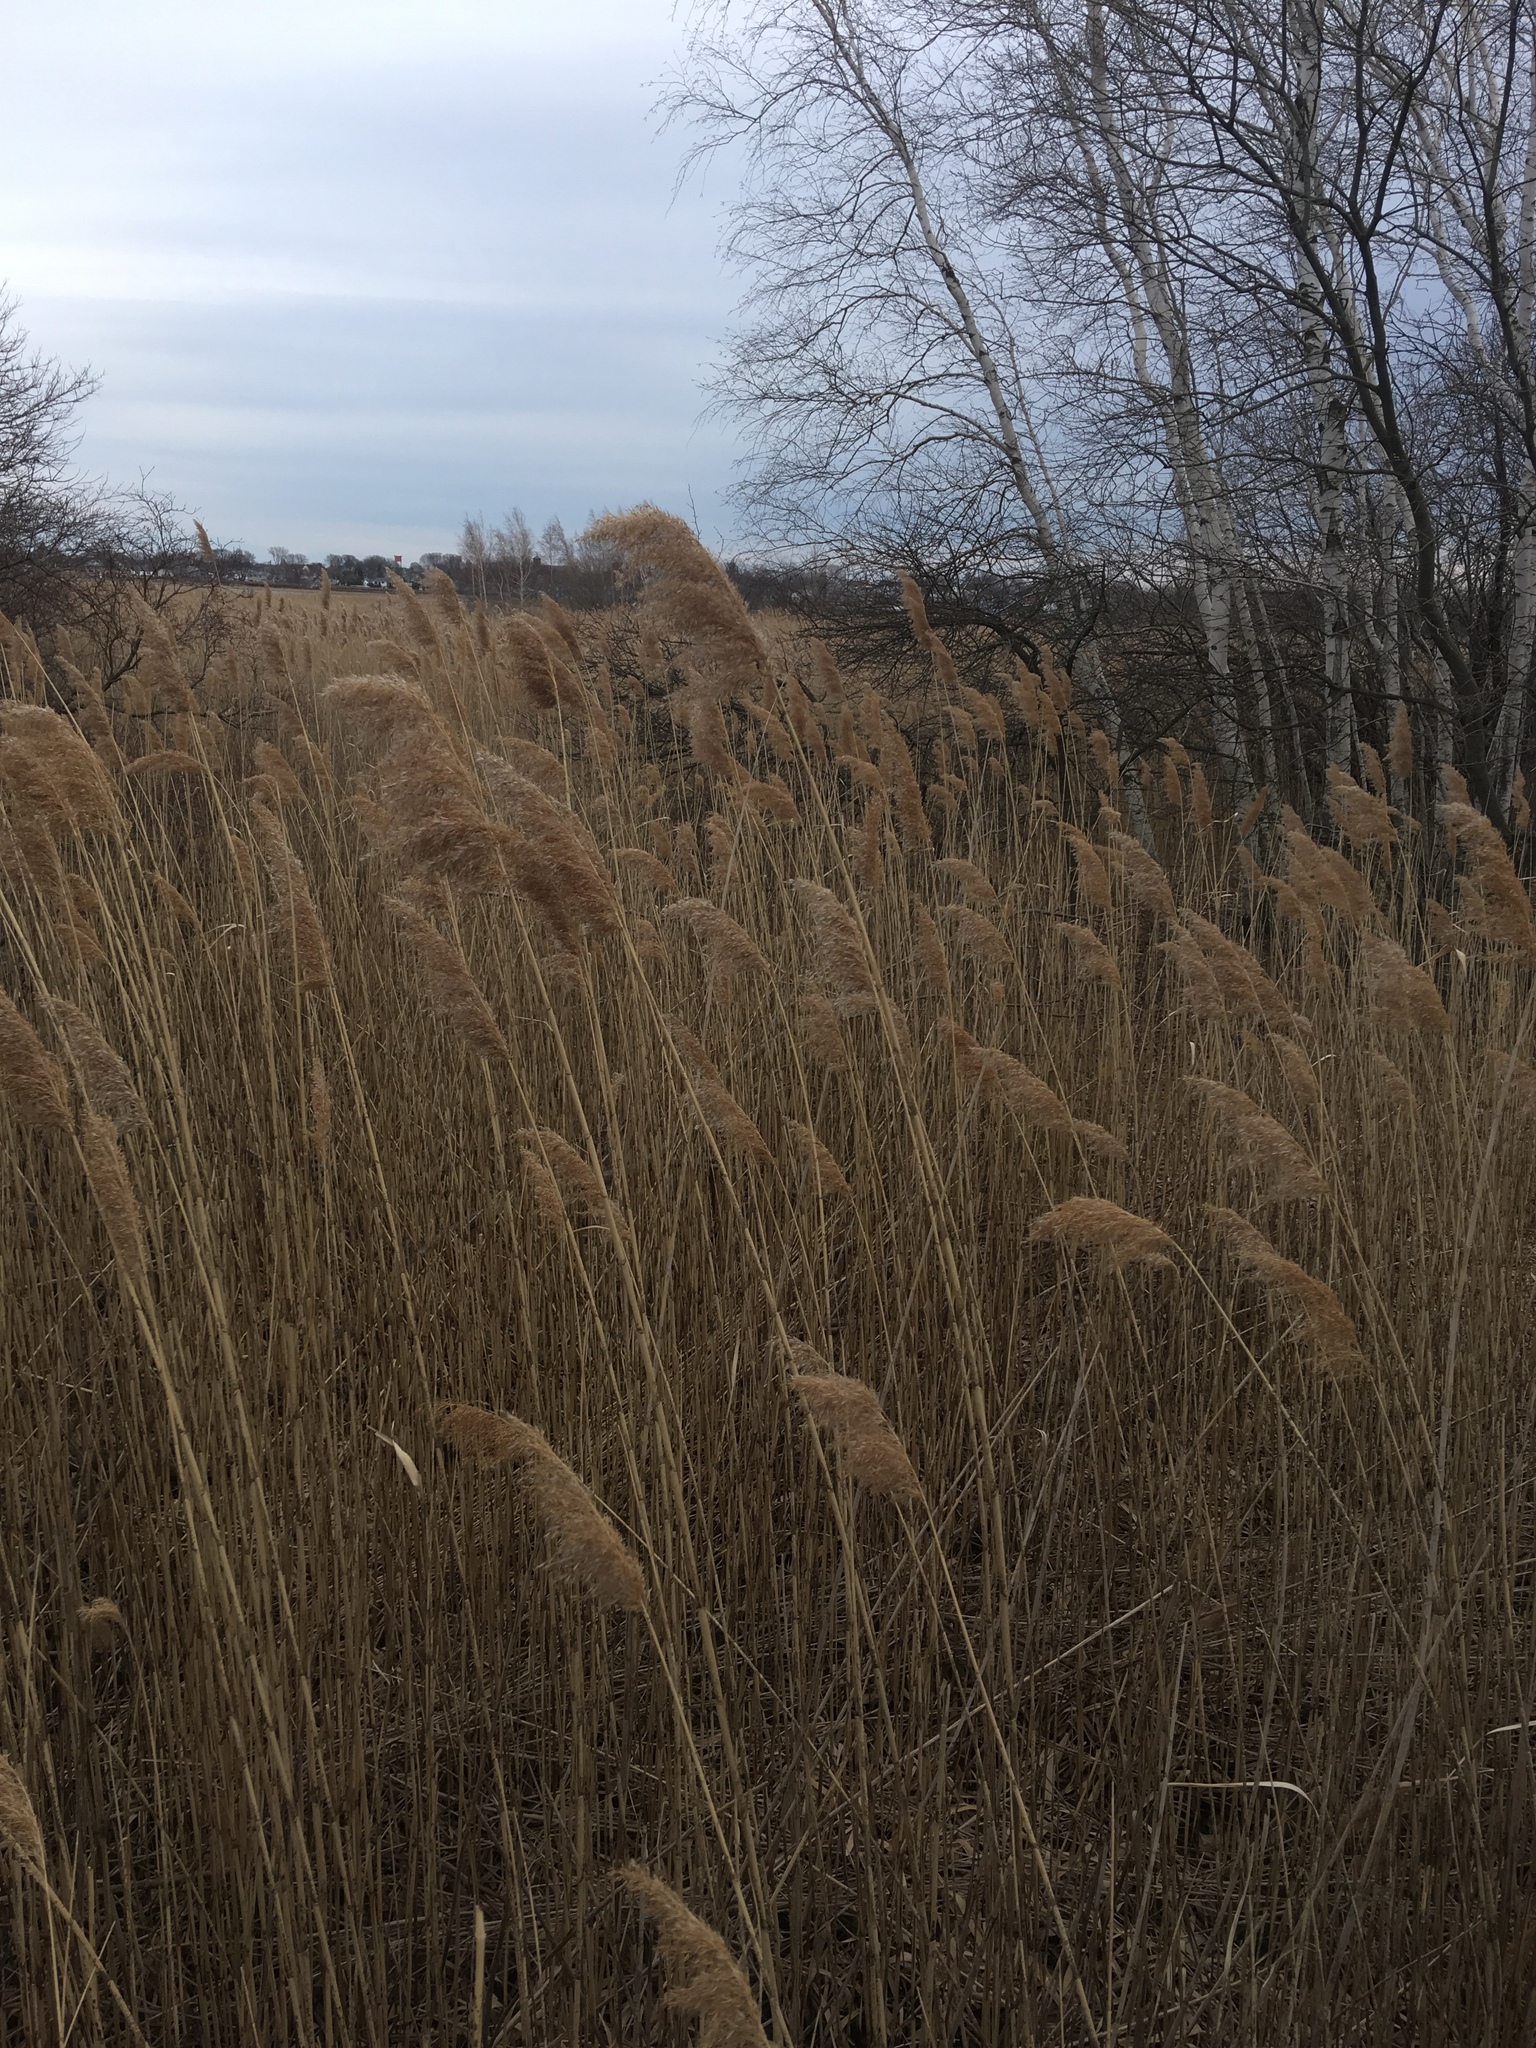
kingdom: Plantae
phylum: Tracheophyta
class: Liliopsida
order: Poales
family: Poaceae
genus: Phragmites
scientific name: Phragmites australis
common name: Common reed
